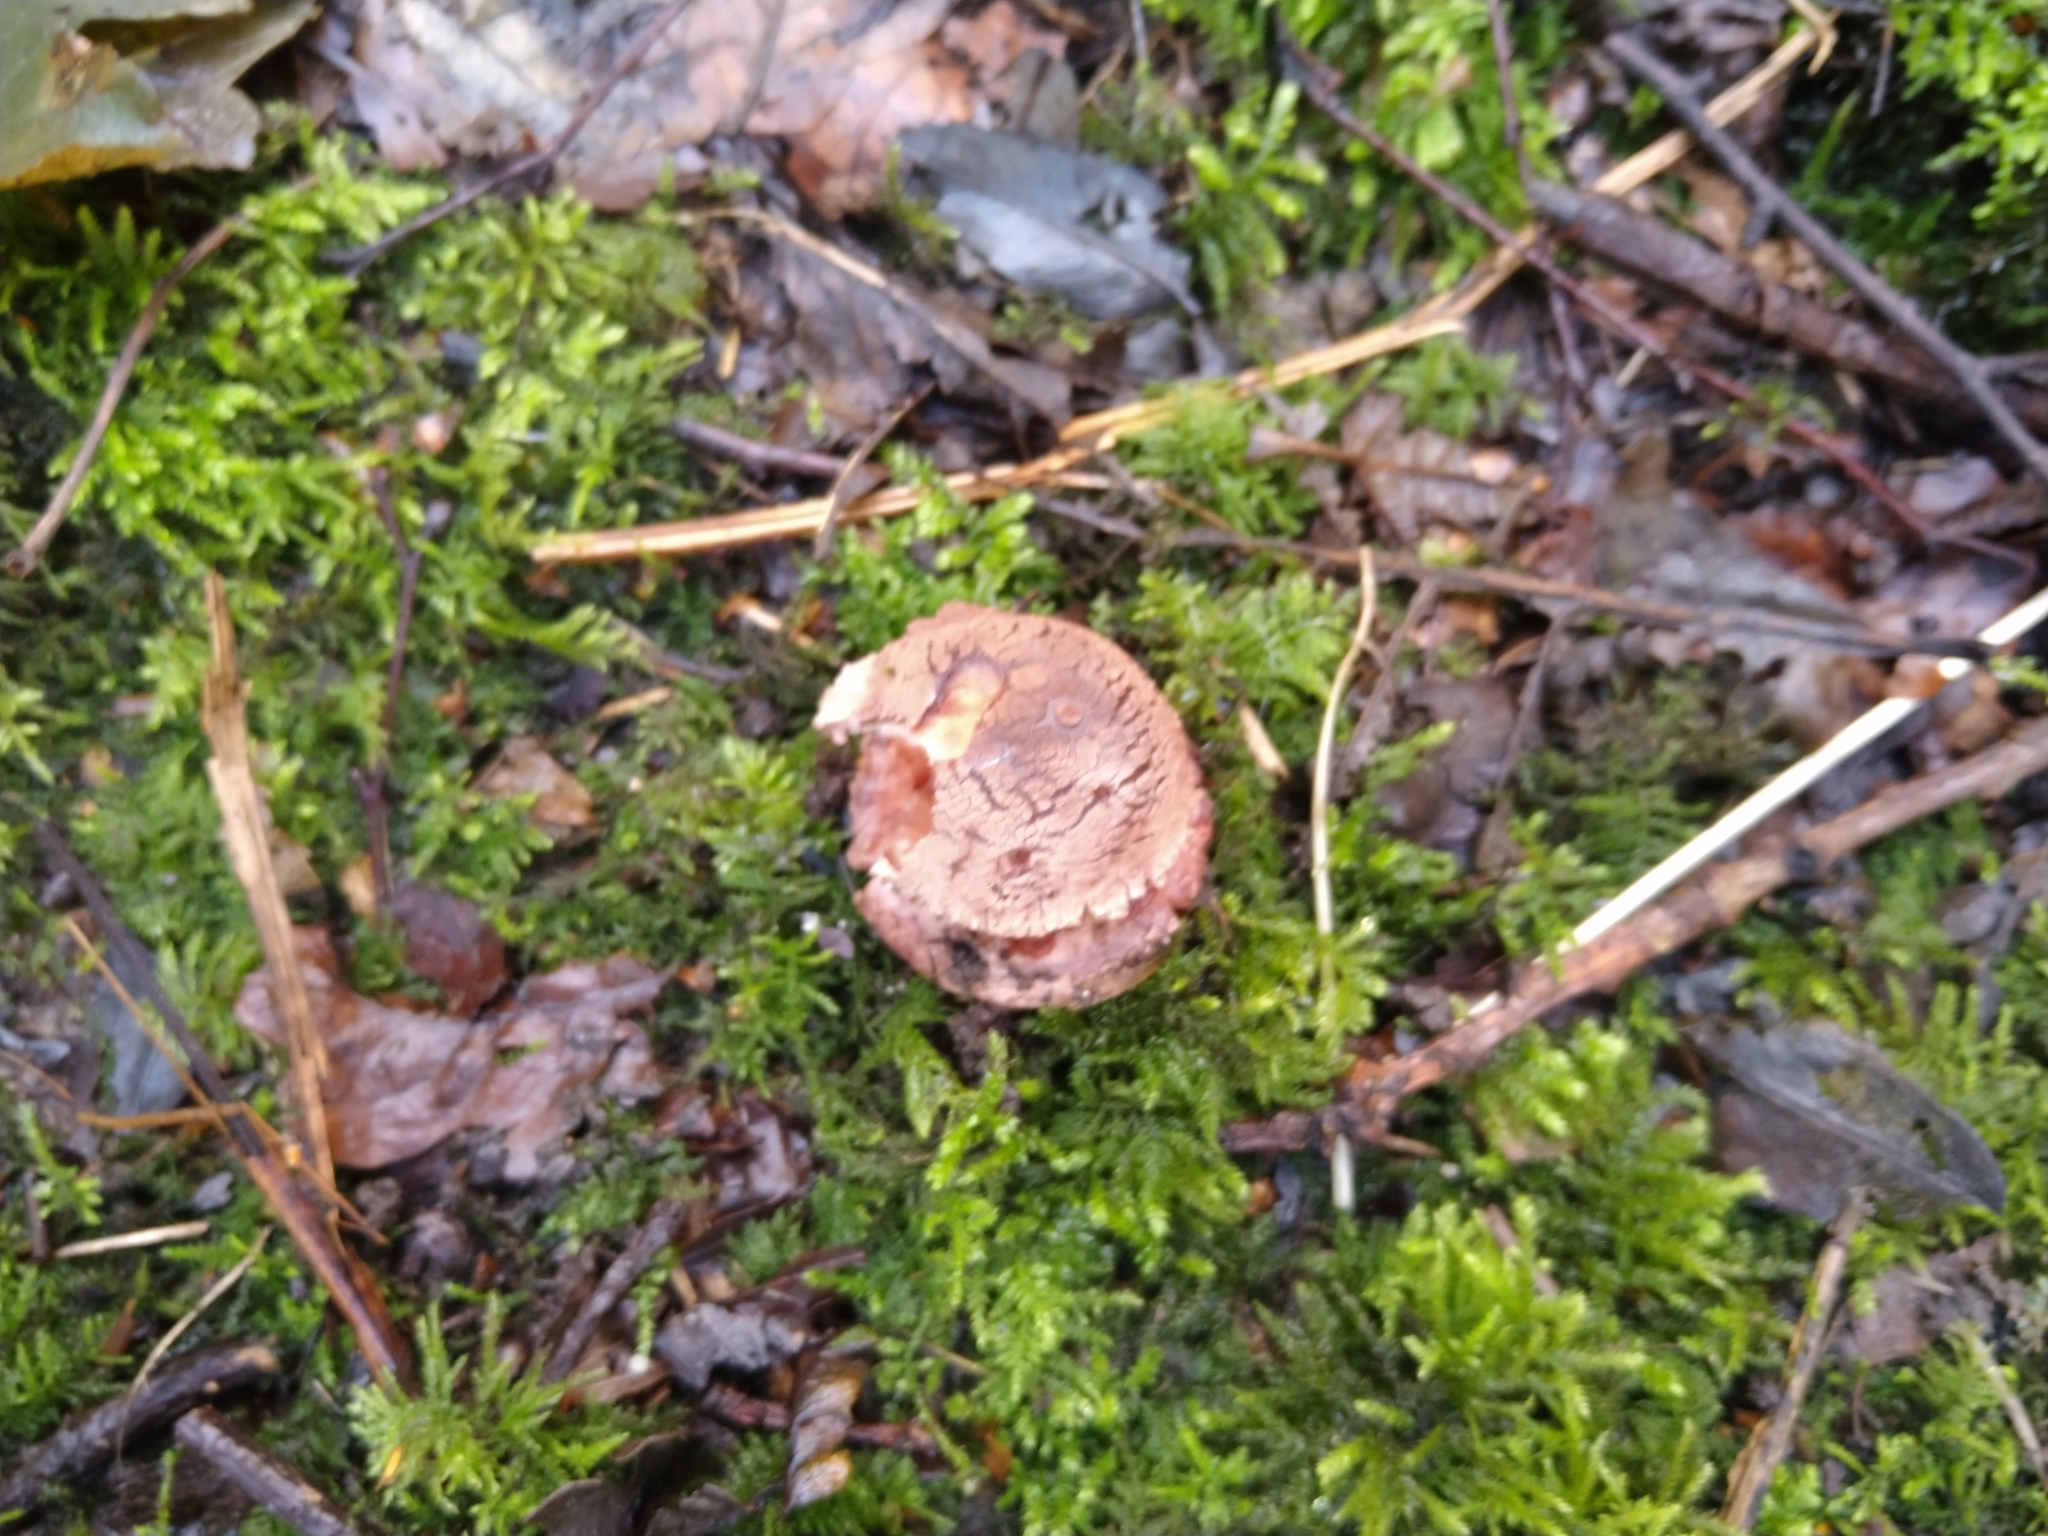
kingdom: Fungi
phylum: Basidiomycota
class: Agaricomycetes
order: Agaricales
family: Amanitaceae
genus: Amanita
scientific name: Amanita rubescens
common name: Blusher
